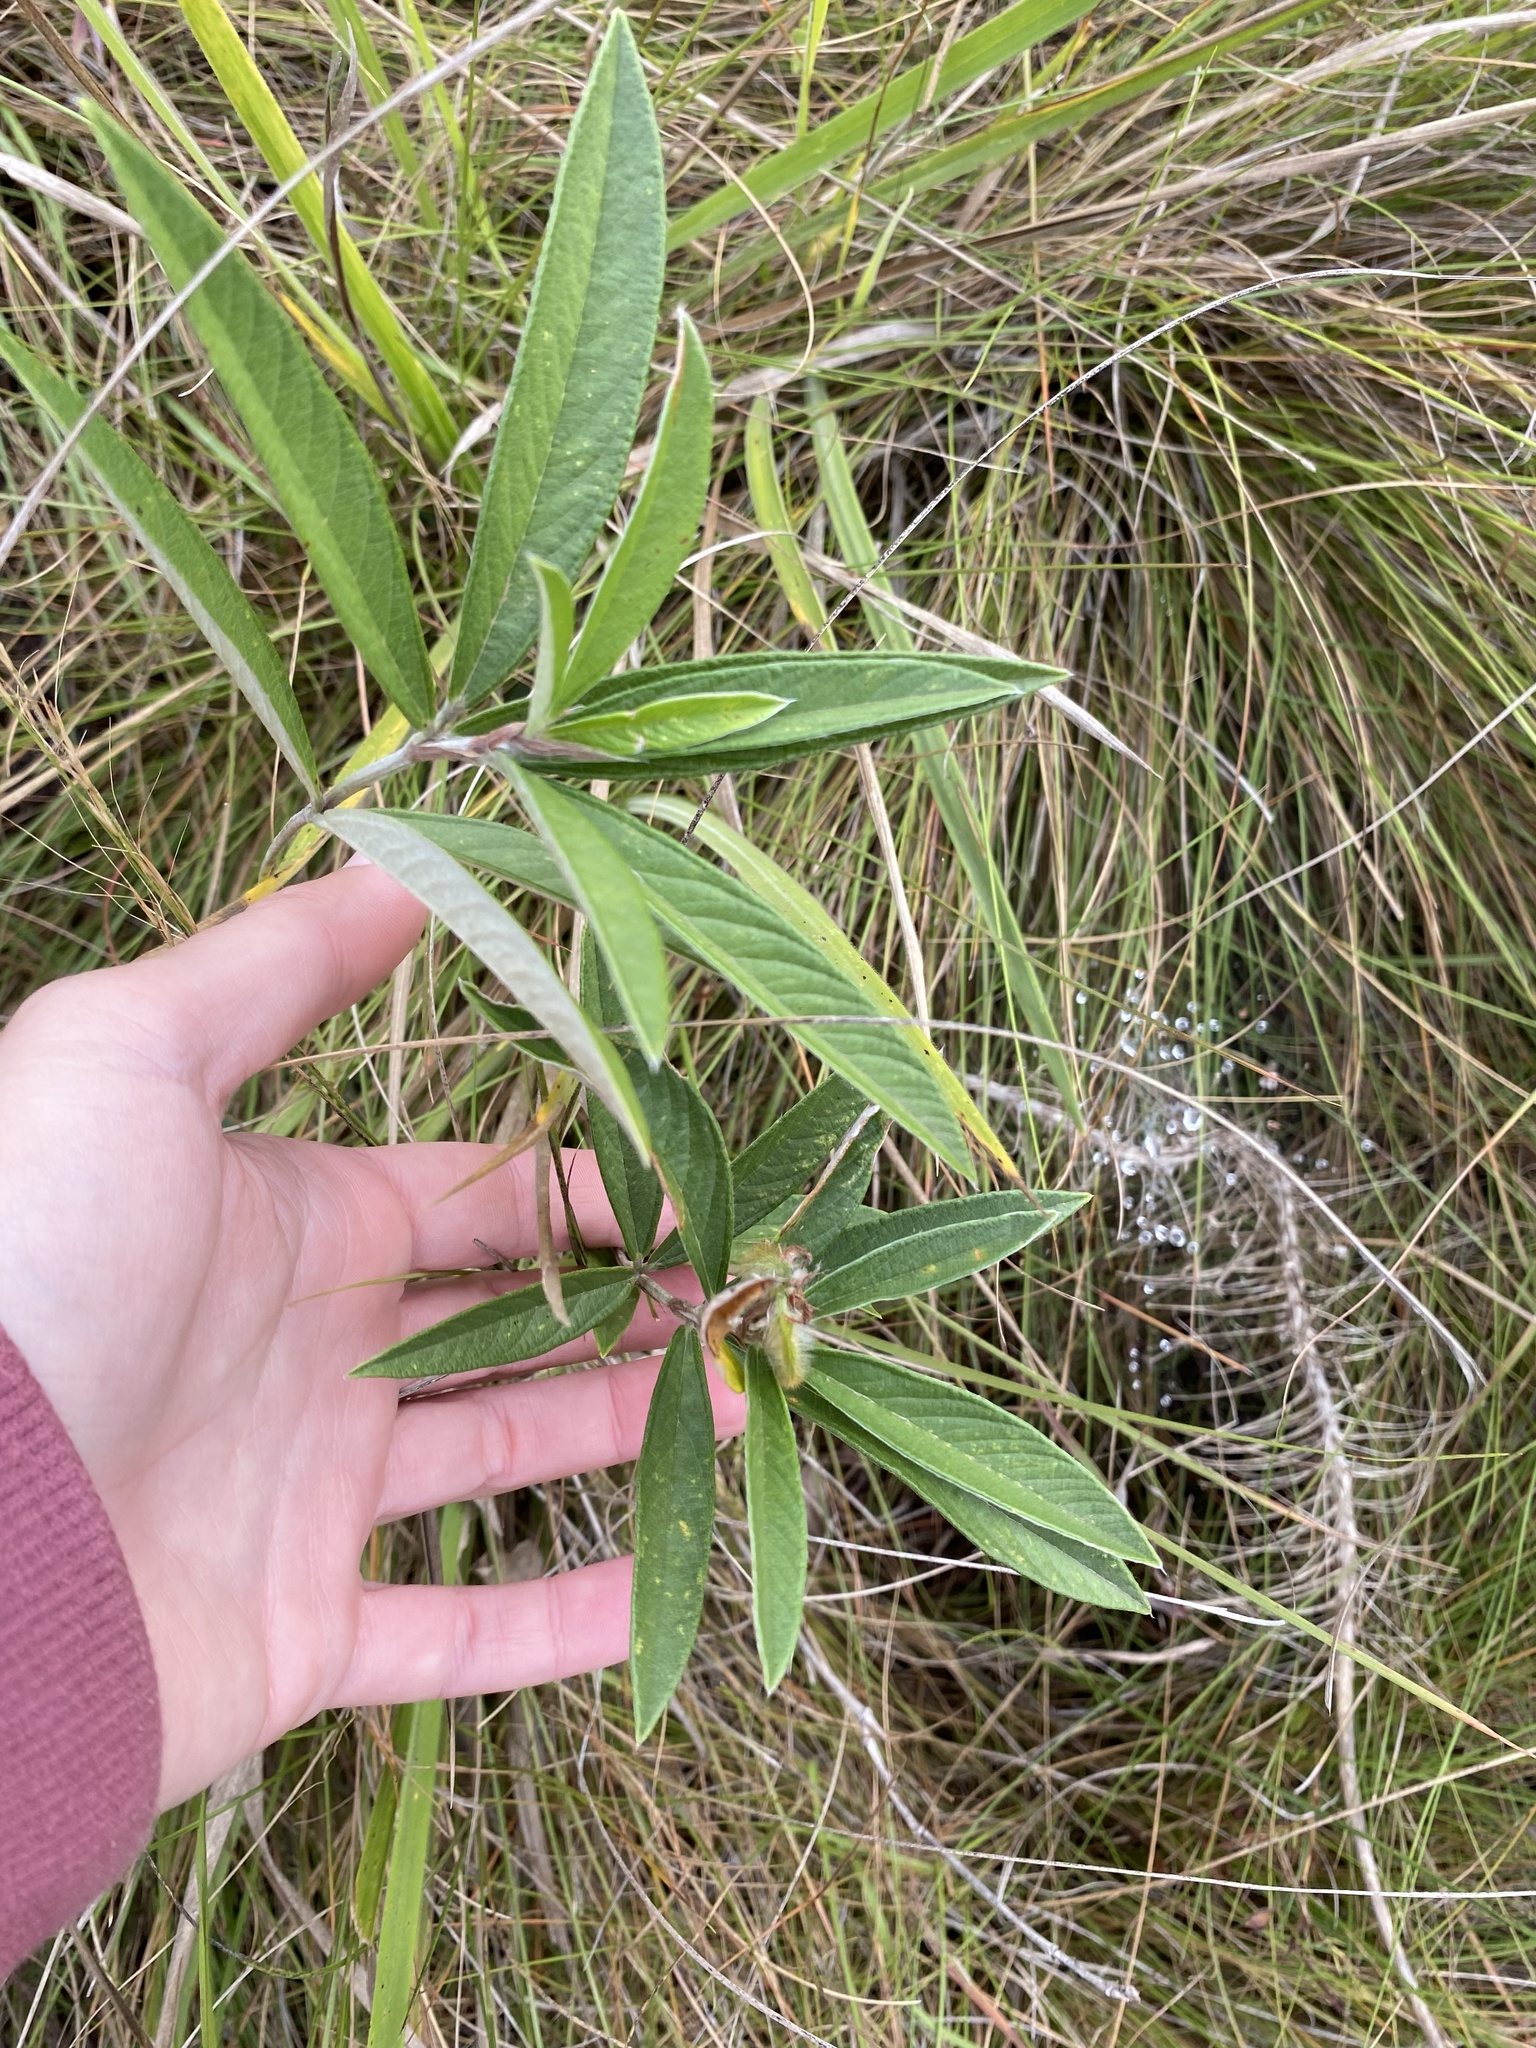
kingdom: Plantae
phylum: Tracheophyta
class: Magnoliopsida
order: Fabales
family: Fabaceae
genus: Eriosema
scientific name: Eriosema salignum
